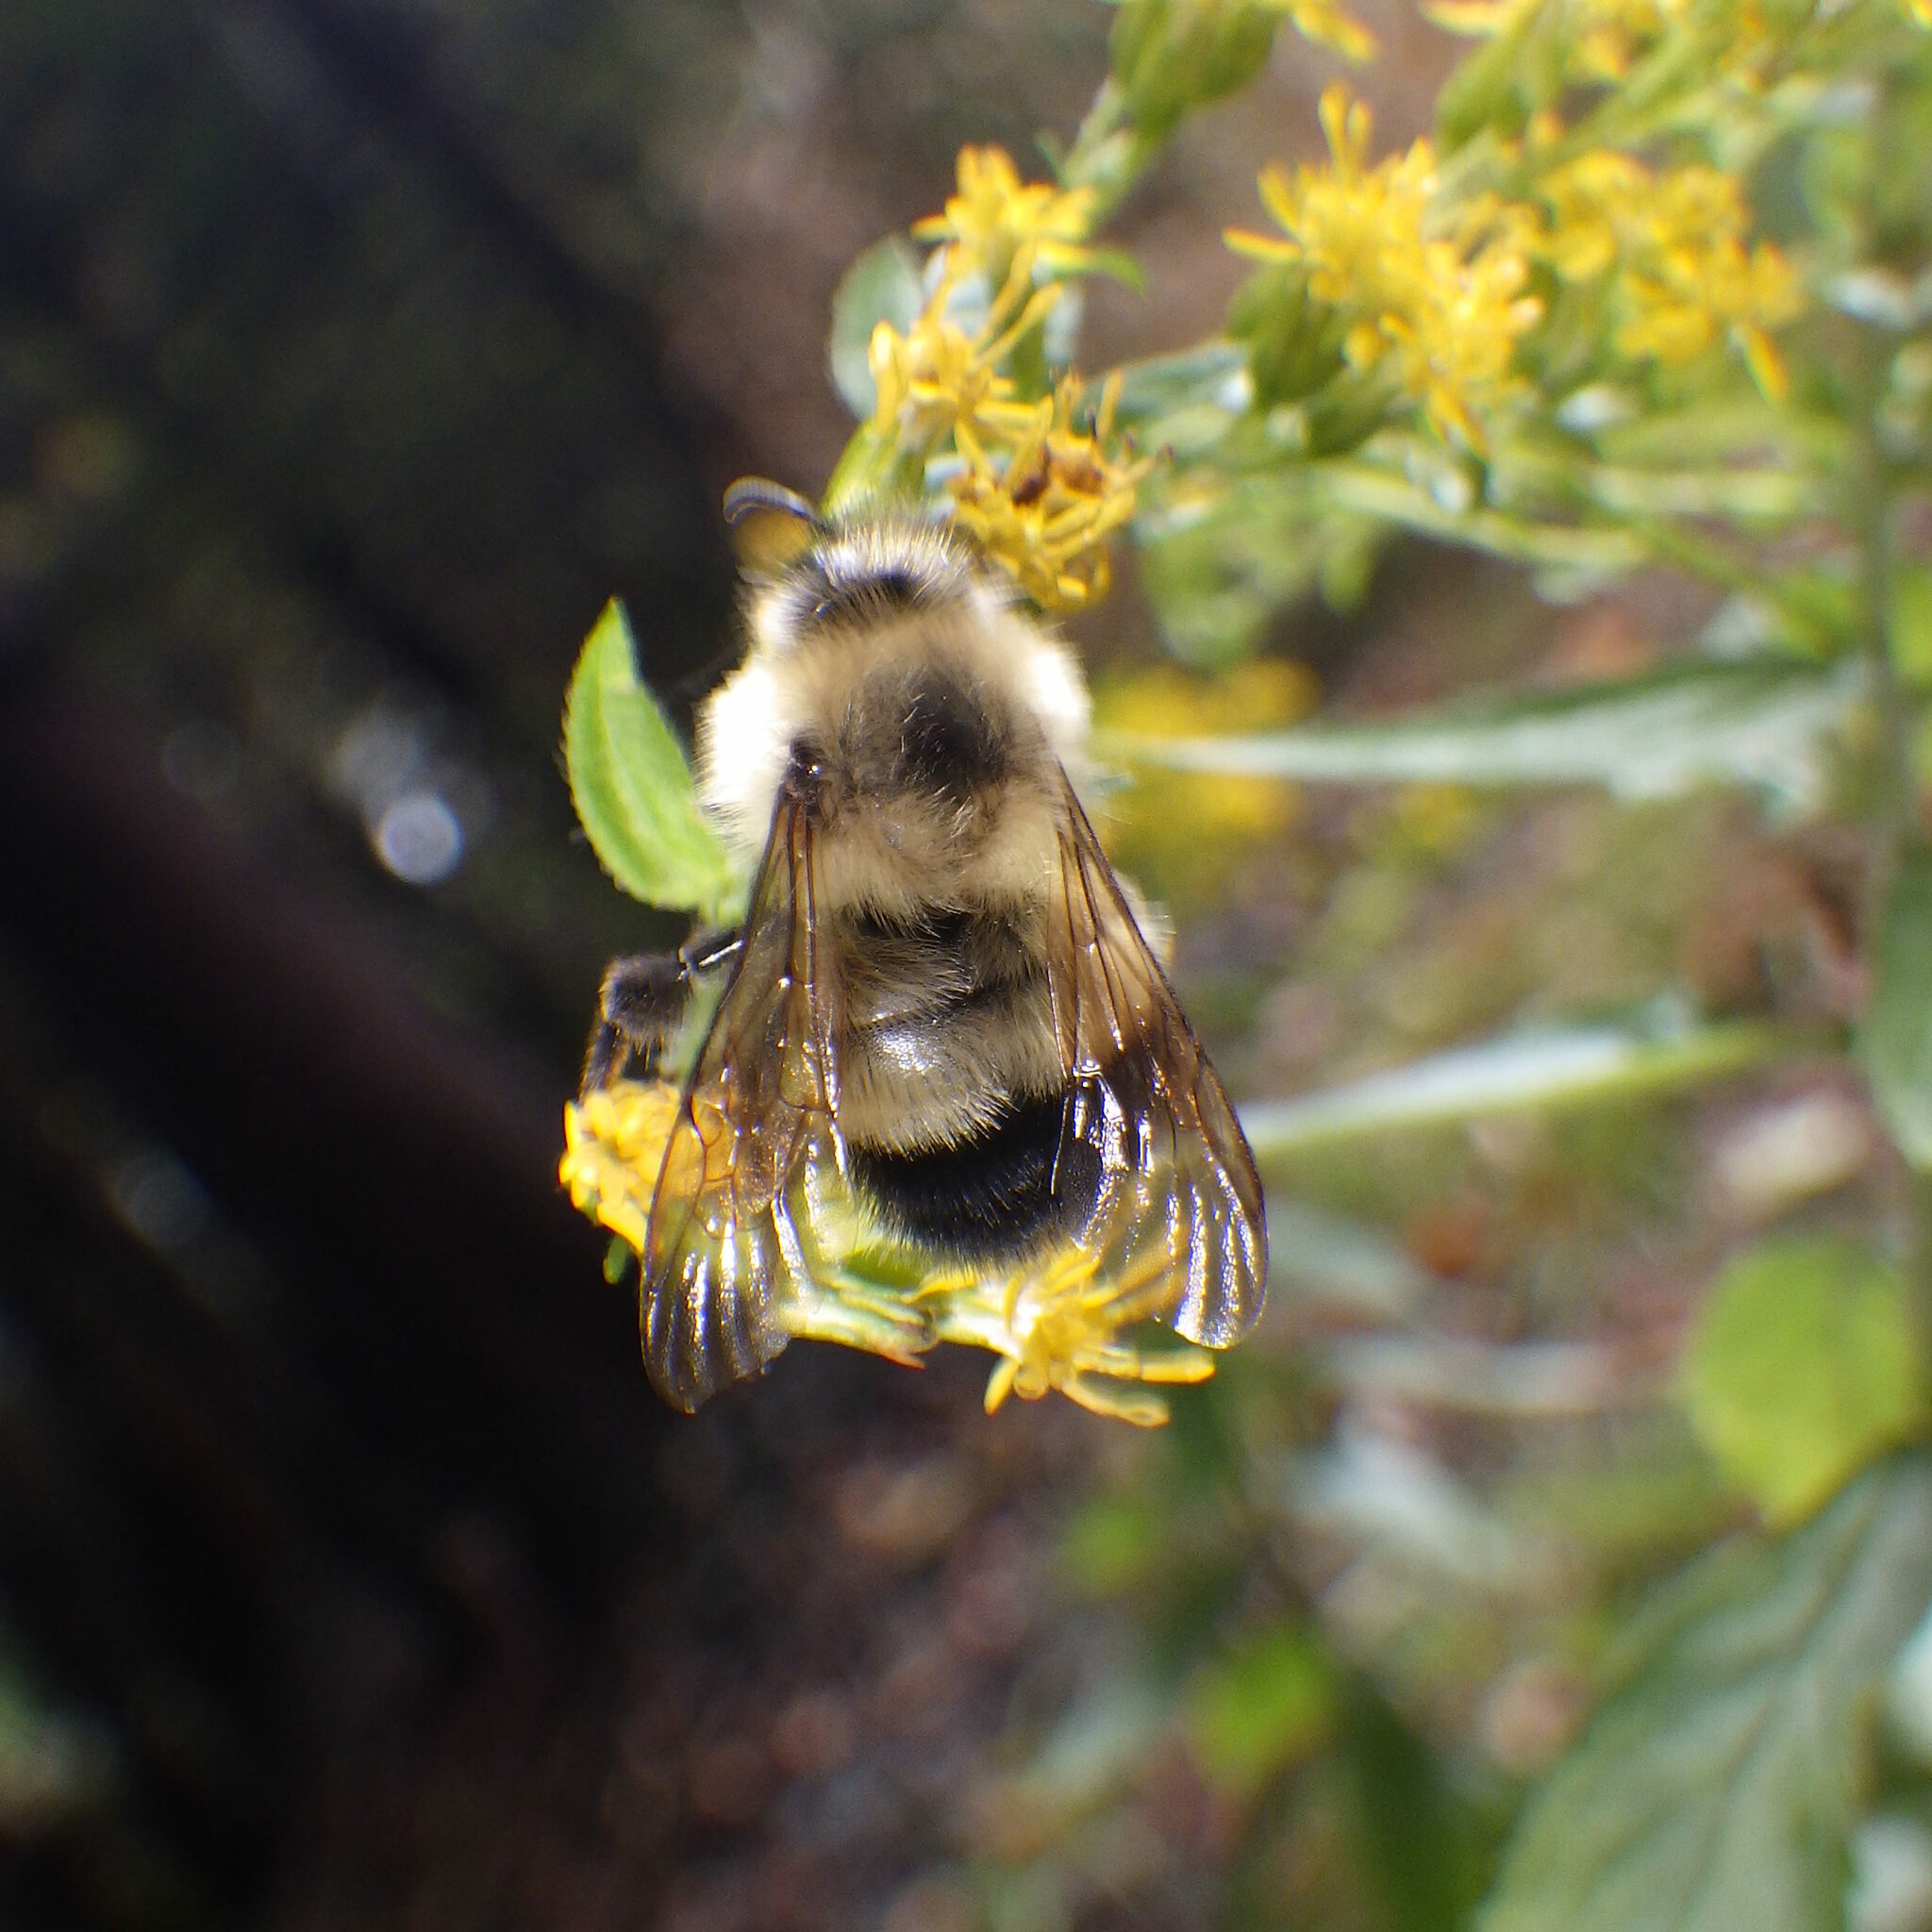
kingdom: Animalia
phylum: Arthropoda
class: Insecta
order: Hymenoptera
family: Apidae
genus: Pyrobombus
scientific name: Pyrobombus
